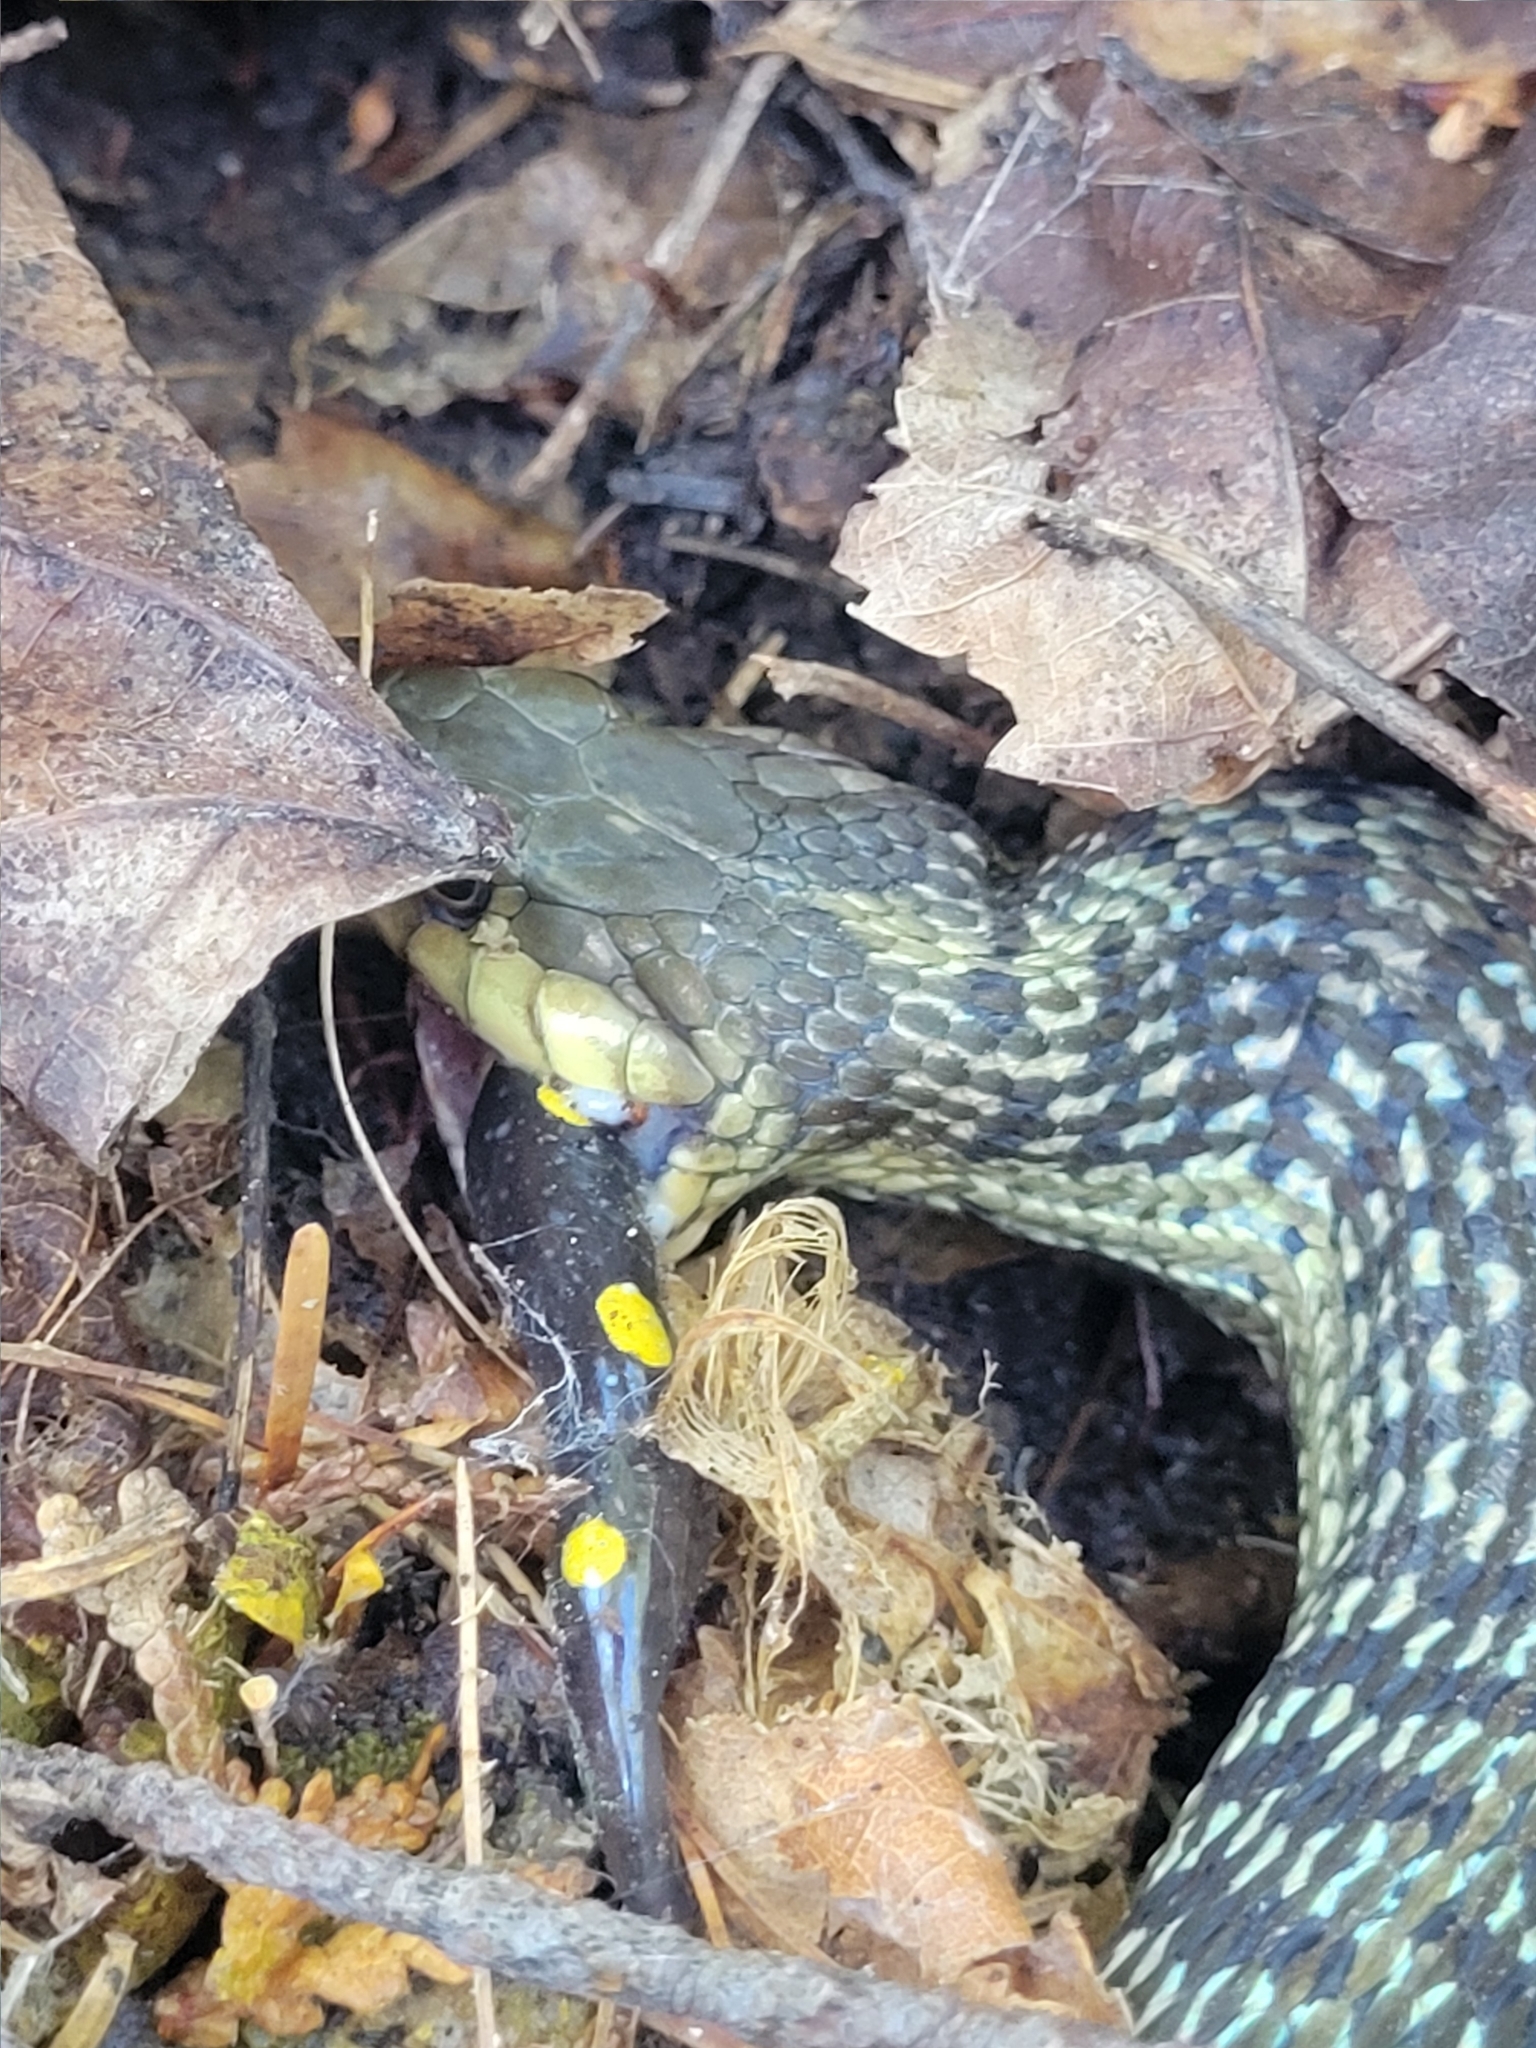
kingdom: Animalia
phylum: Chordata
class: Squamata
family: Colubridae
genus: Thamnophis
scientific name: Thamnophis sirtalis
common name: Common garter snake
